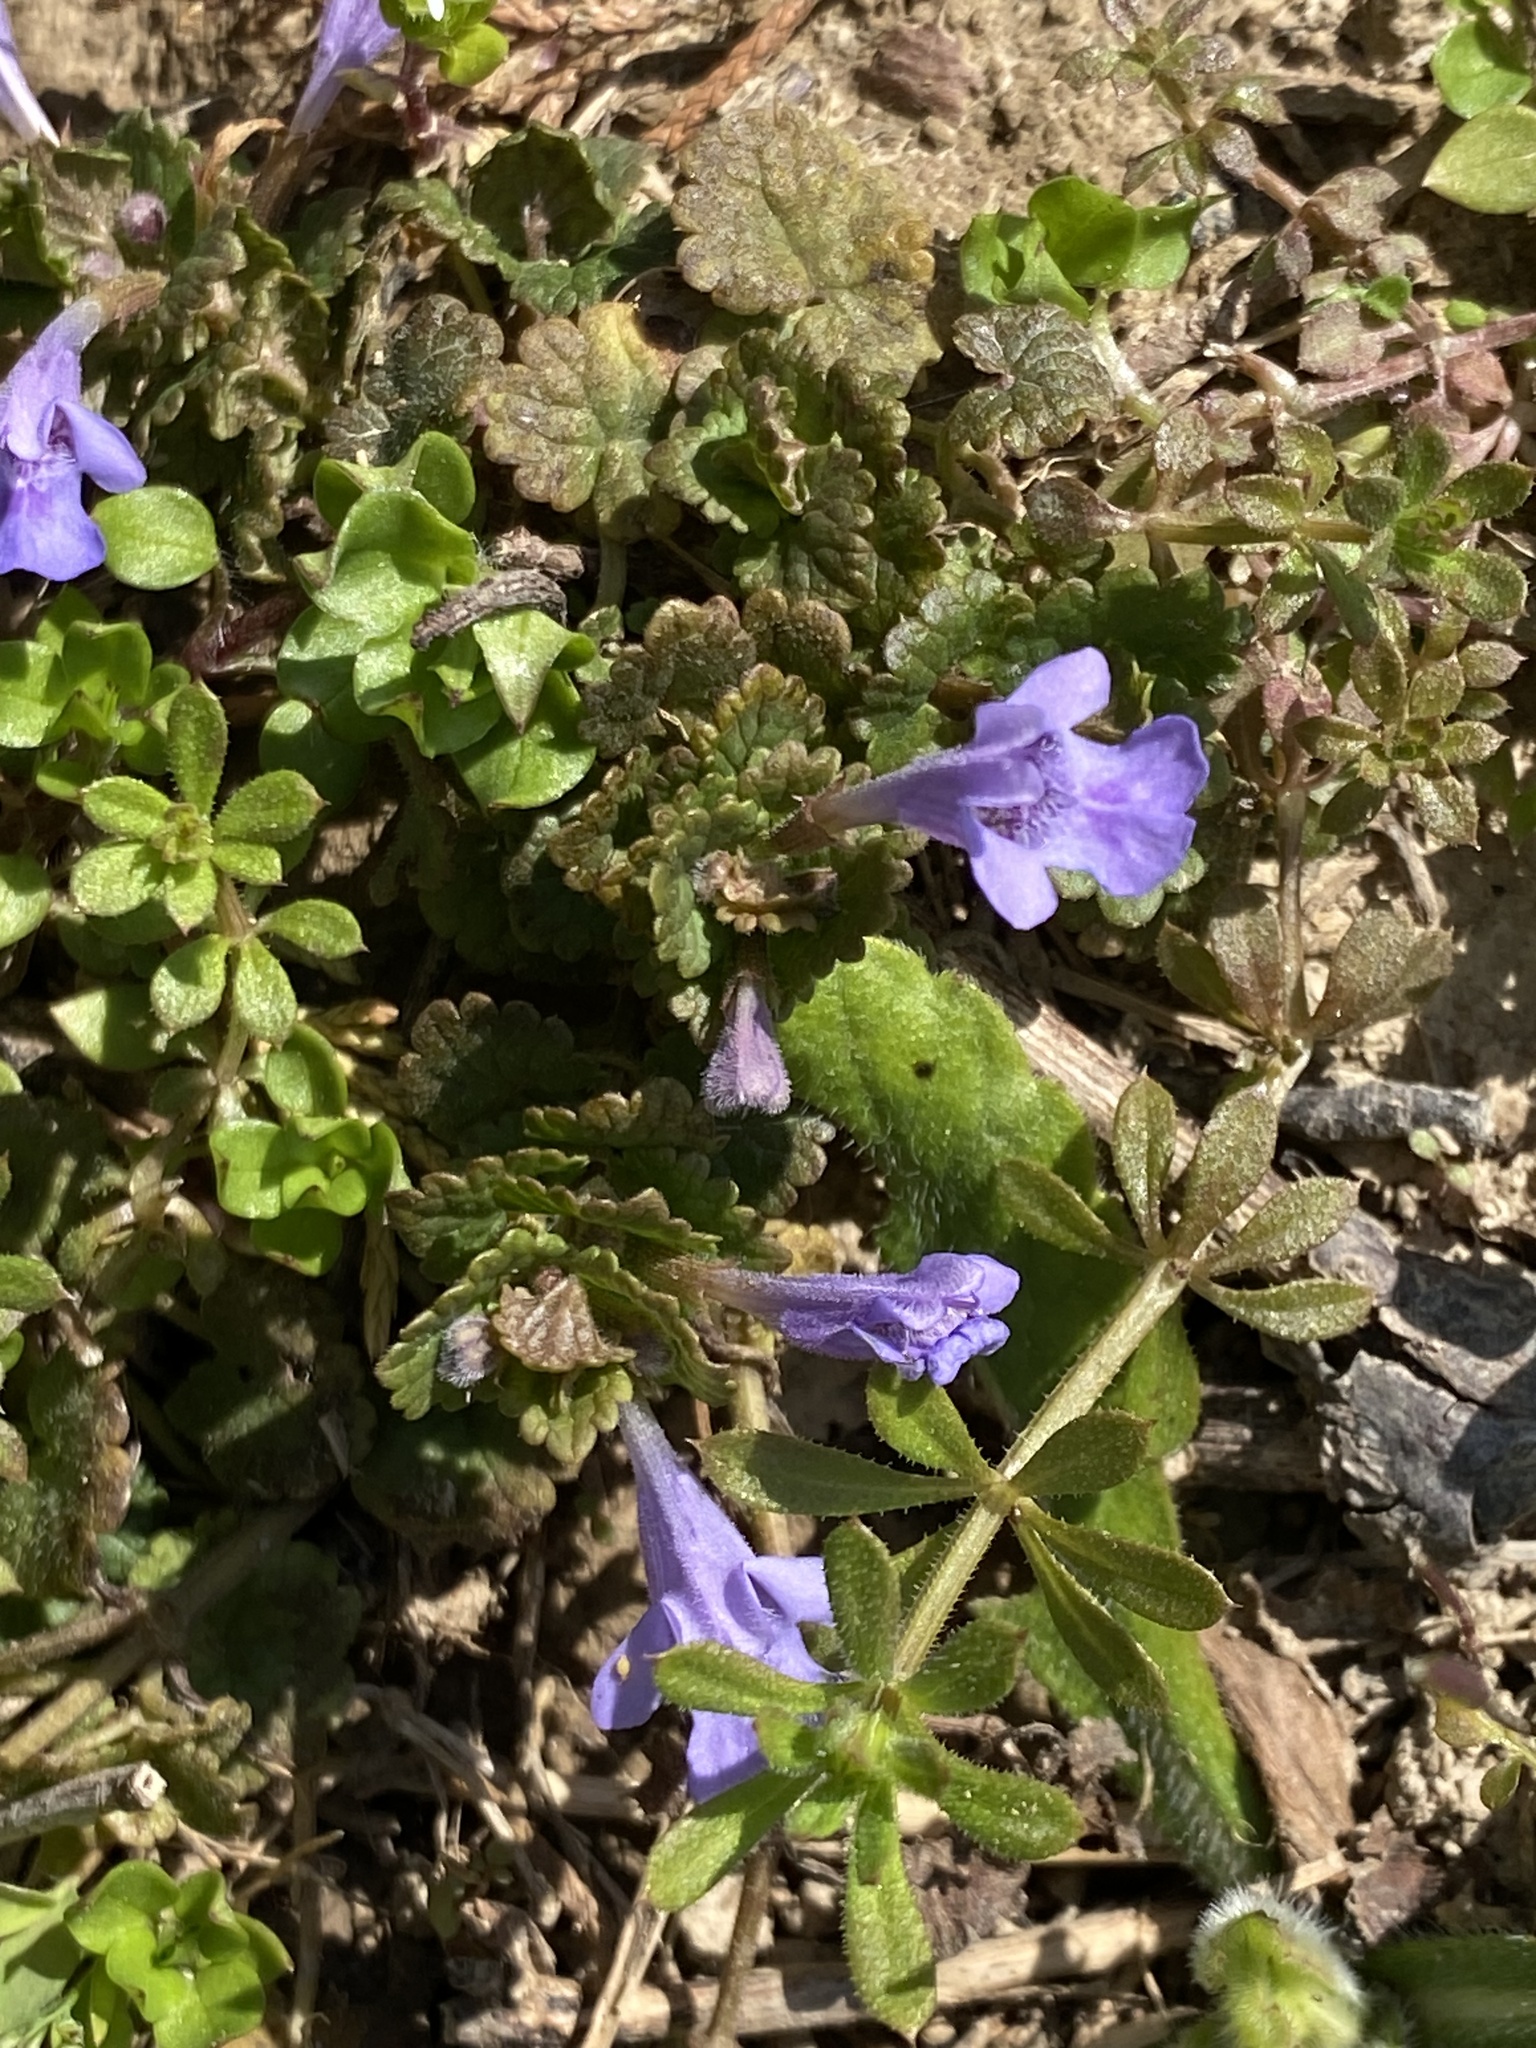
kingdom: Plantae
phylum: Tracheophyta
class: Magnoliopsida
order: Lamiales
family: Lamiaceae
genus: Glechoma
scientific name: Glechoma hederacea
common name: Ground ivy
